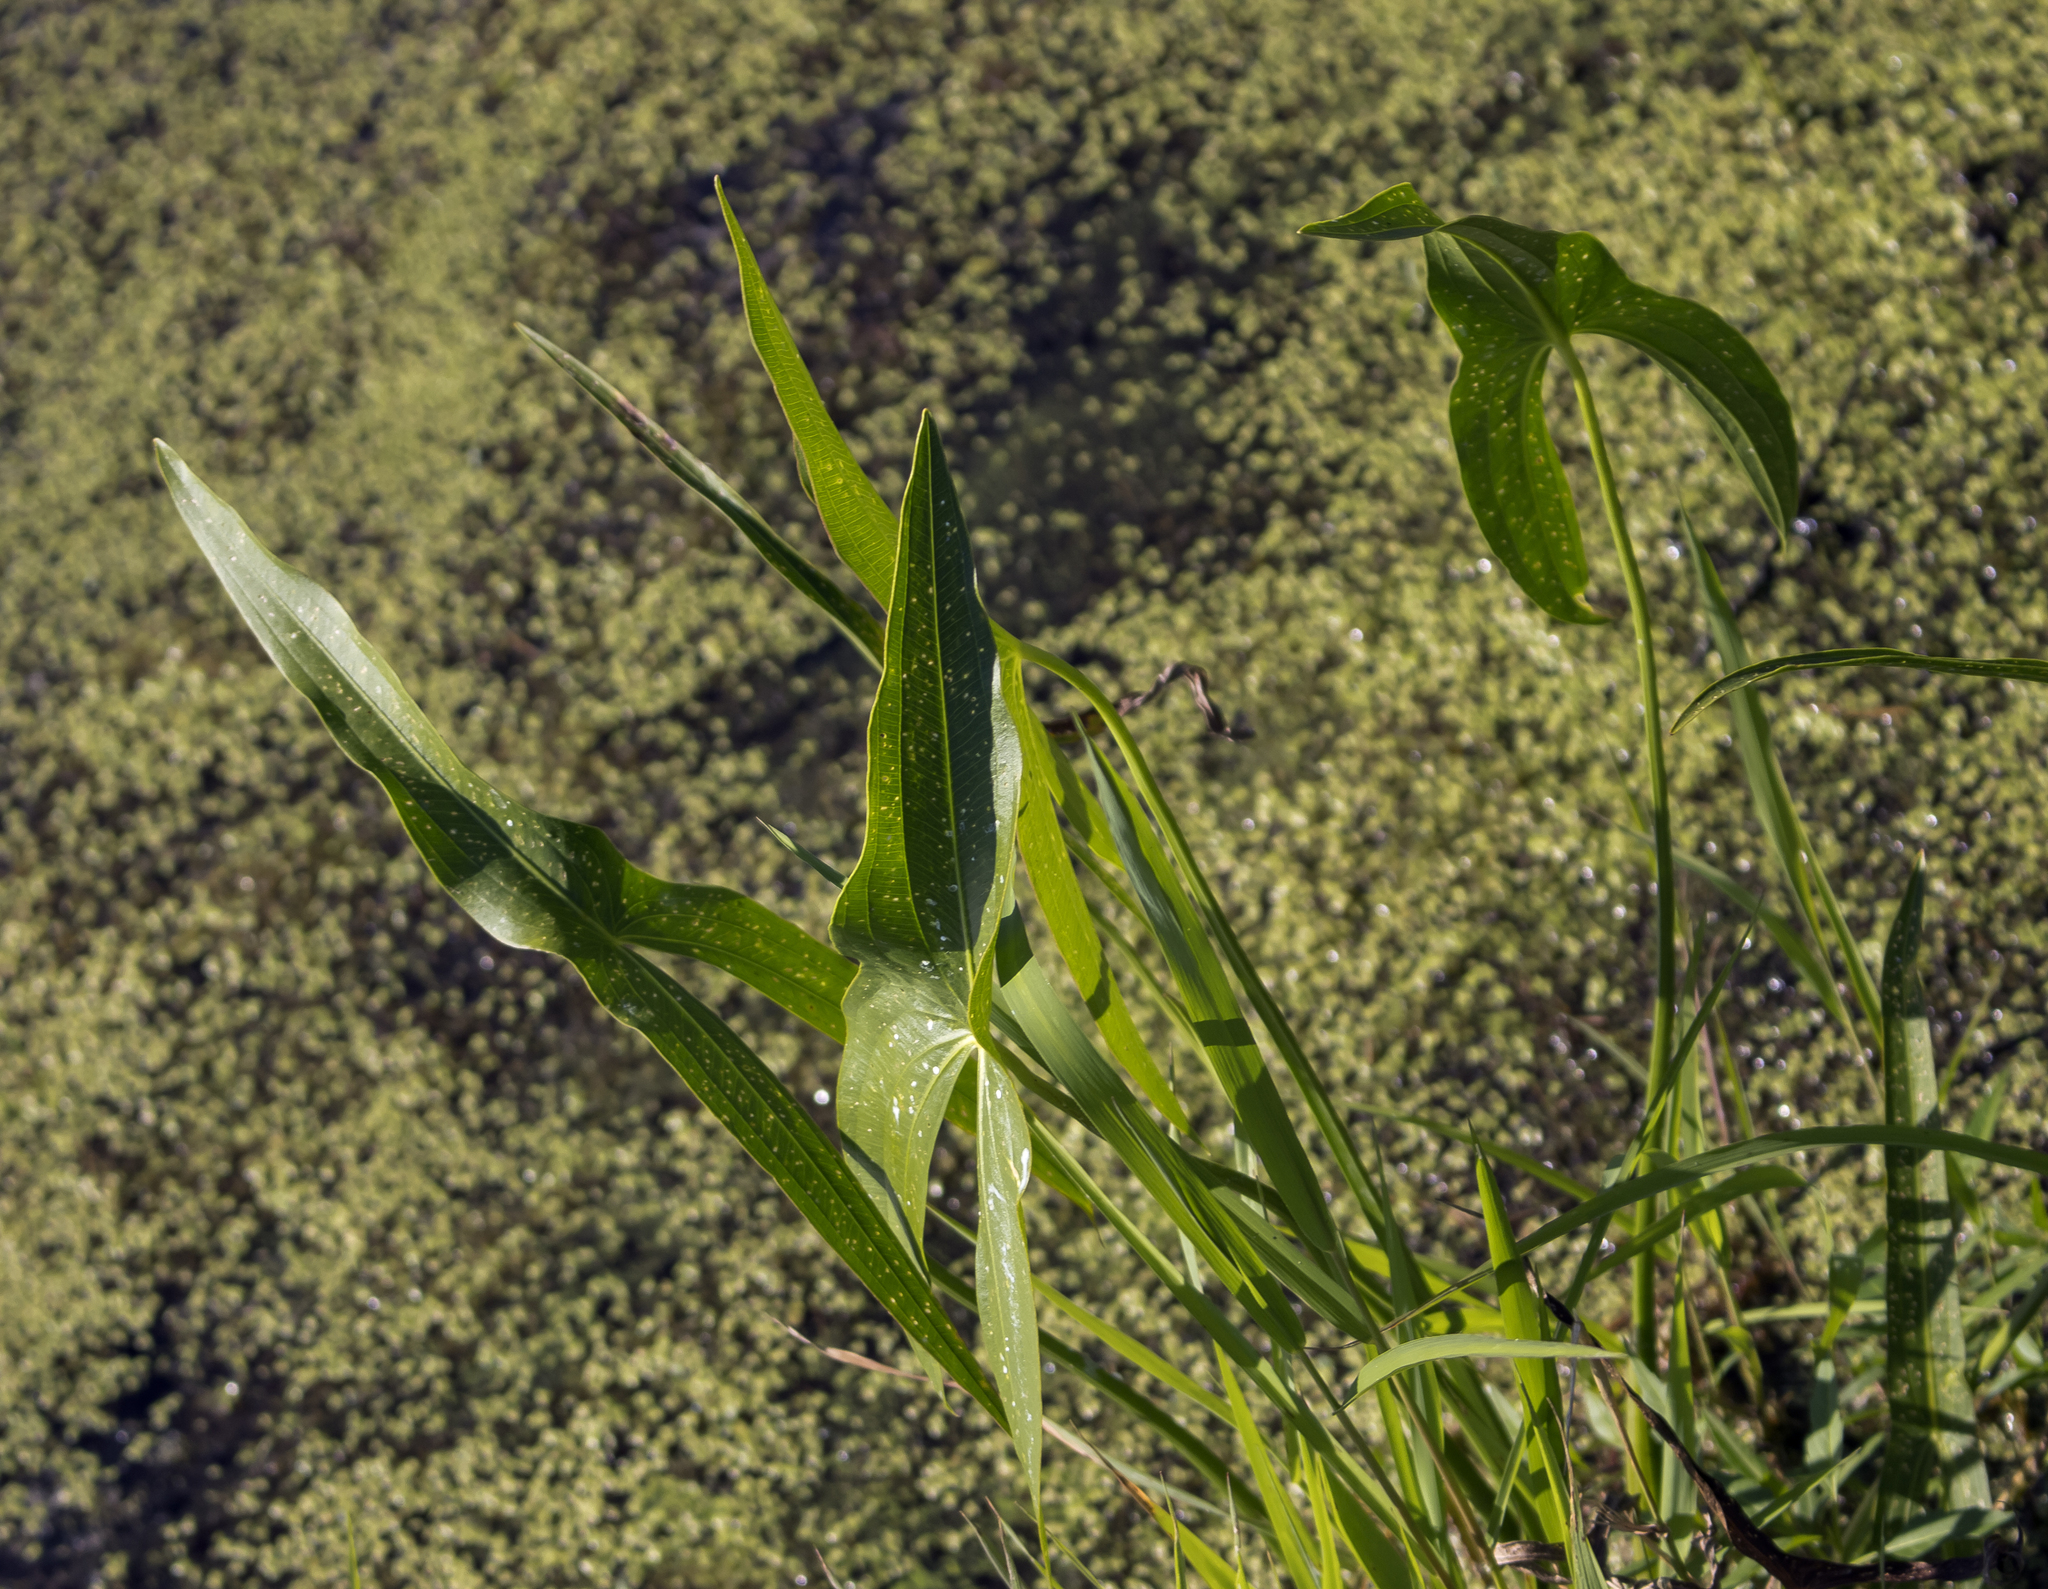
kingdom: Plantae
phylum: Tracheophyta
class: Liliopsida
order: Alismatales
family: Alismataceae
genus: Sagittaria
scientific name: Sagittaria latifolia
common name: Duck-potato
